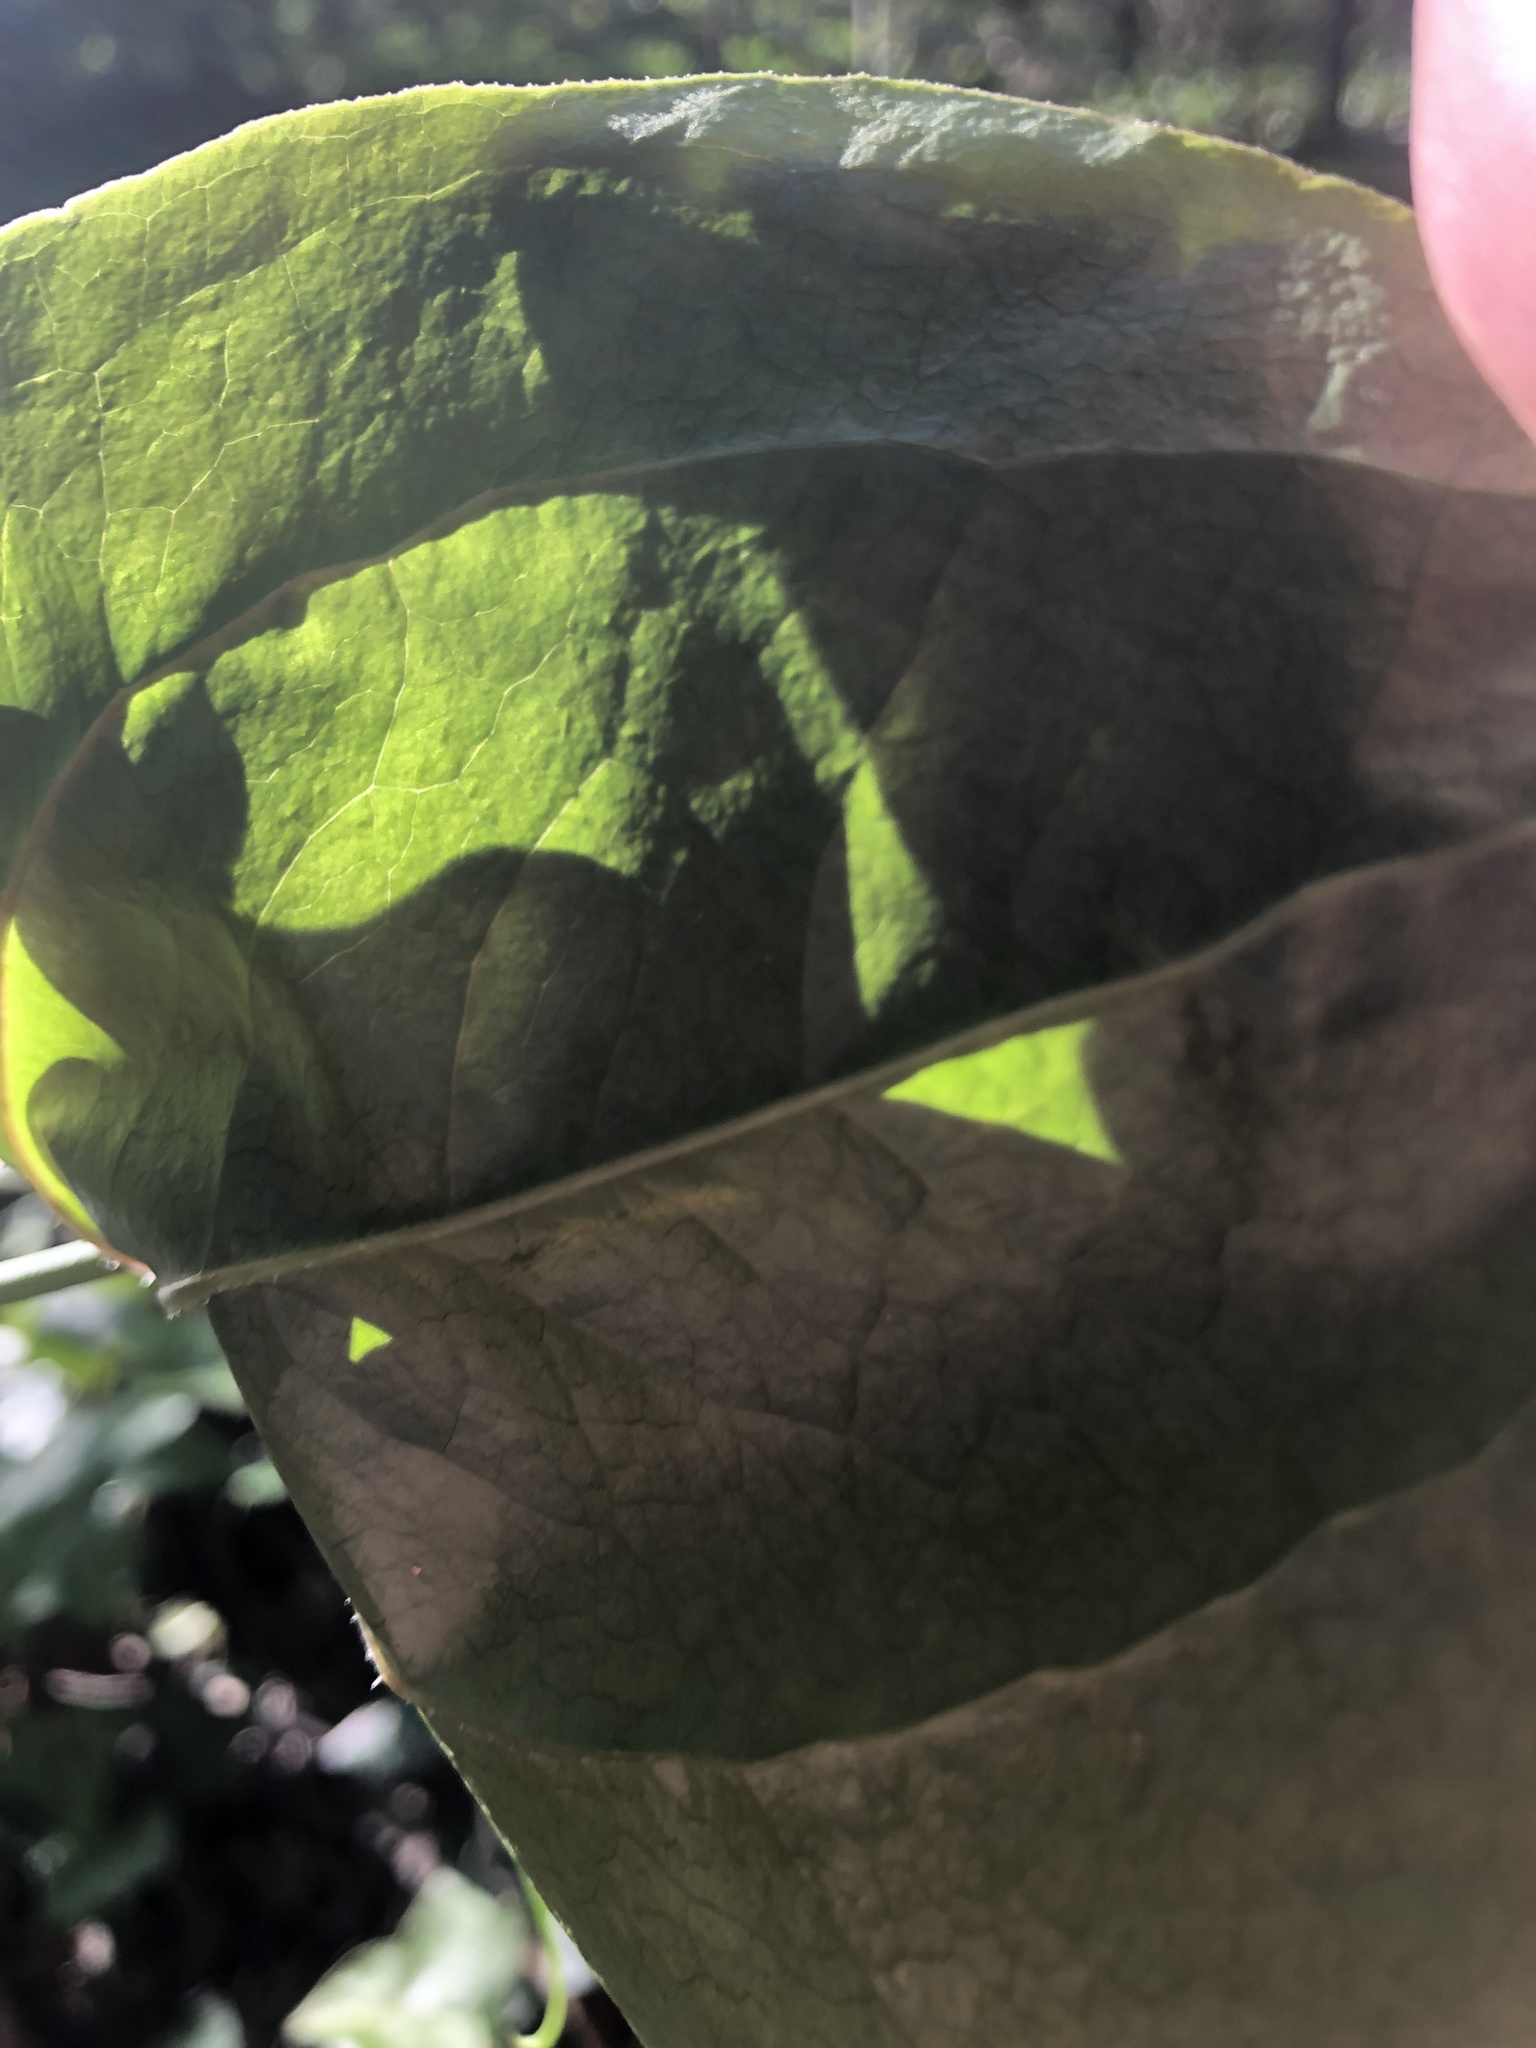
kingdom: Plantae
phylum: Tracheophyta
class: Liliopsida
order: Liliales
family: Smilacaceae
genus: Smilax
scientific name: Smilax rotundifolia
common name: Bullbriar
